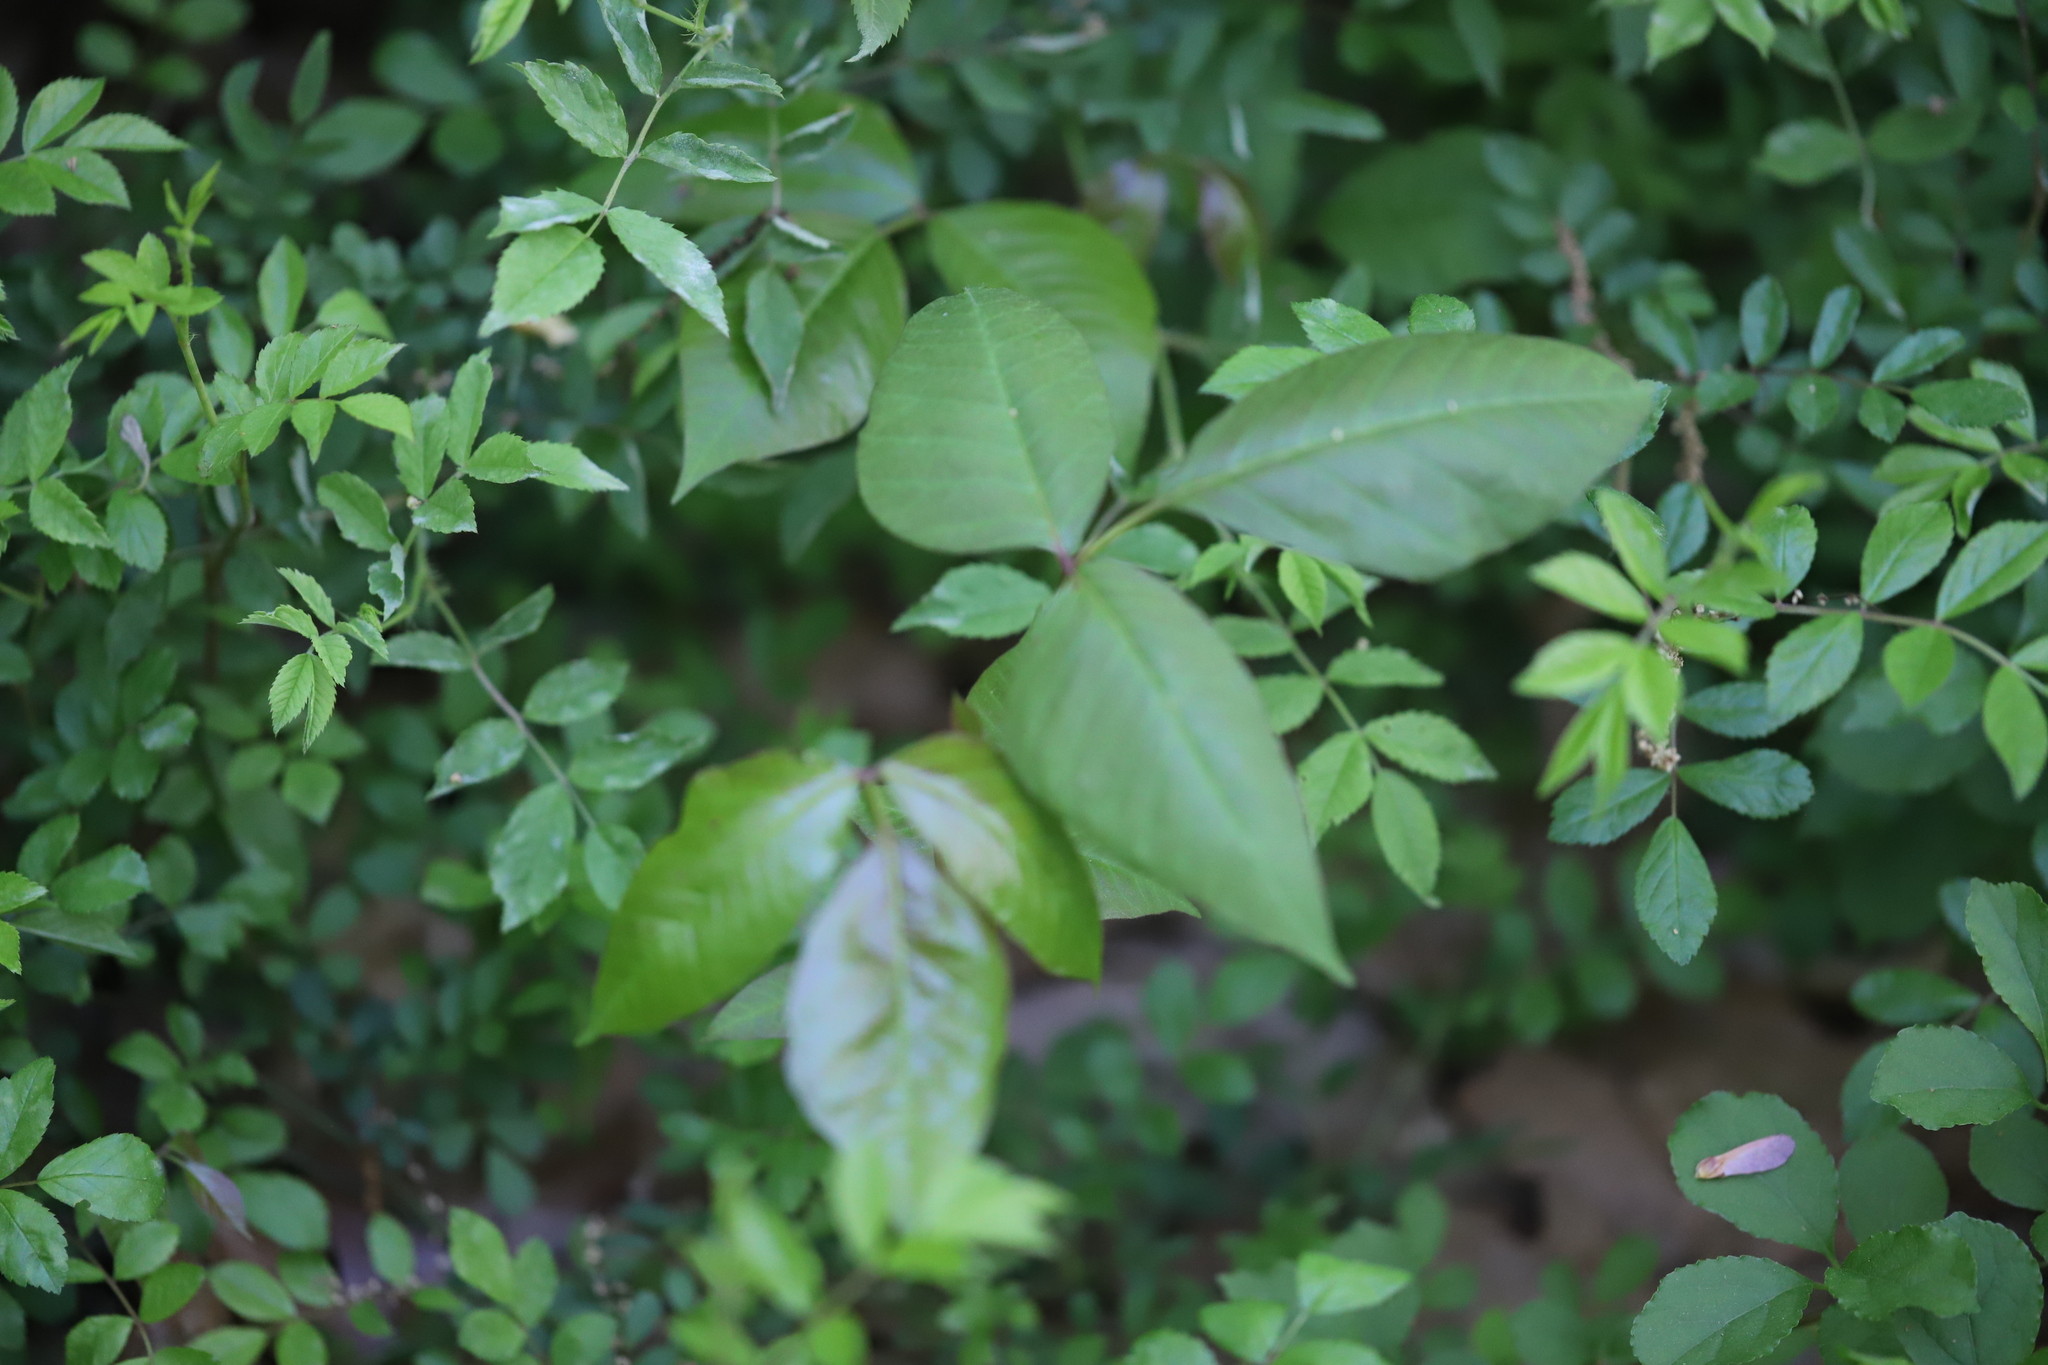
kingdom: Plantae
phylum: Tracheophyta
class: Magnoliopsida
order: Sapindales
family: Anacardiaceae
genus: Toxicodendron
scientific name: Toxicodendron radicans
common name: Poison ivy
